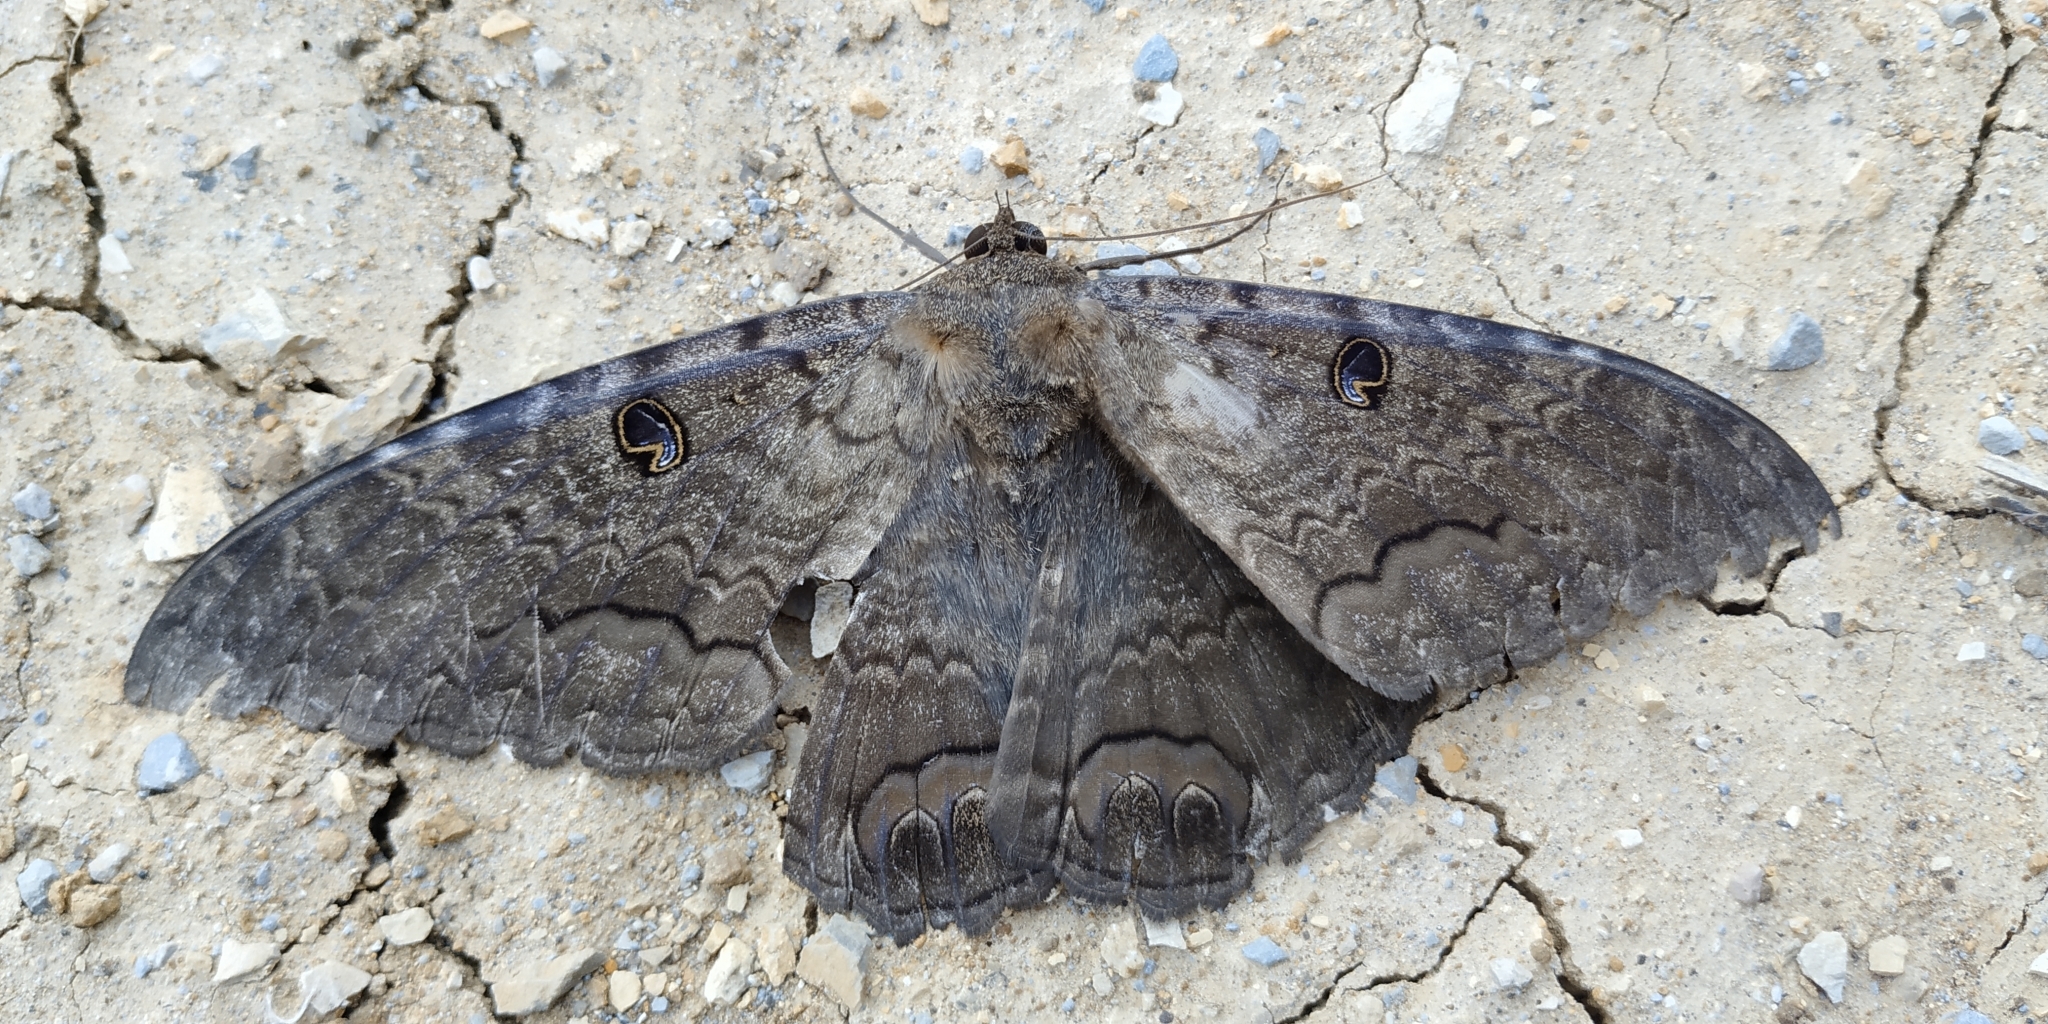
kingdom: Animalia
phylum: Arthropoda
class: Insecta
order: Lepidoptera
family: Erebidae
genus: Ascalapha
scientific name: Ascalapha odorata
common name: Black witch
